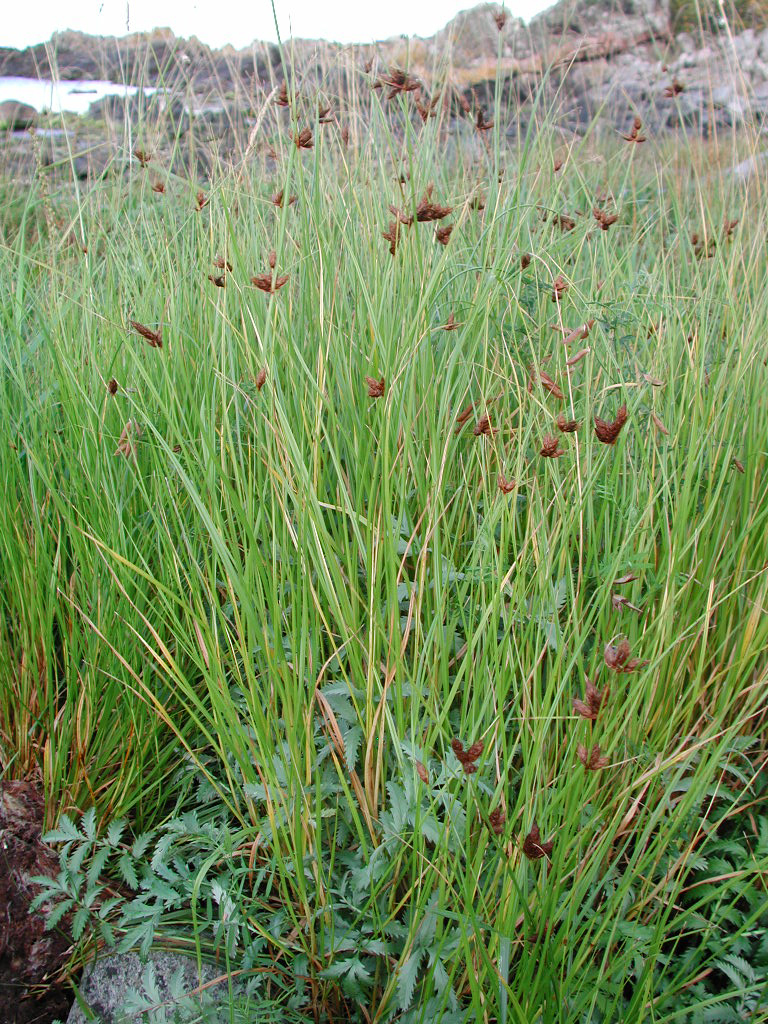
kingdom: Plantae
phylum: Tracheophyta
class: Liliopsida
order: Poales
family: Cyperaceae
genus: Bolboschoenus
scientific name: Bolboschoenus maritimus
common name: Sea club-rush
